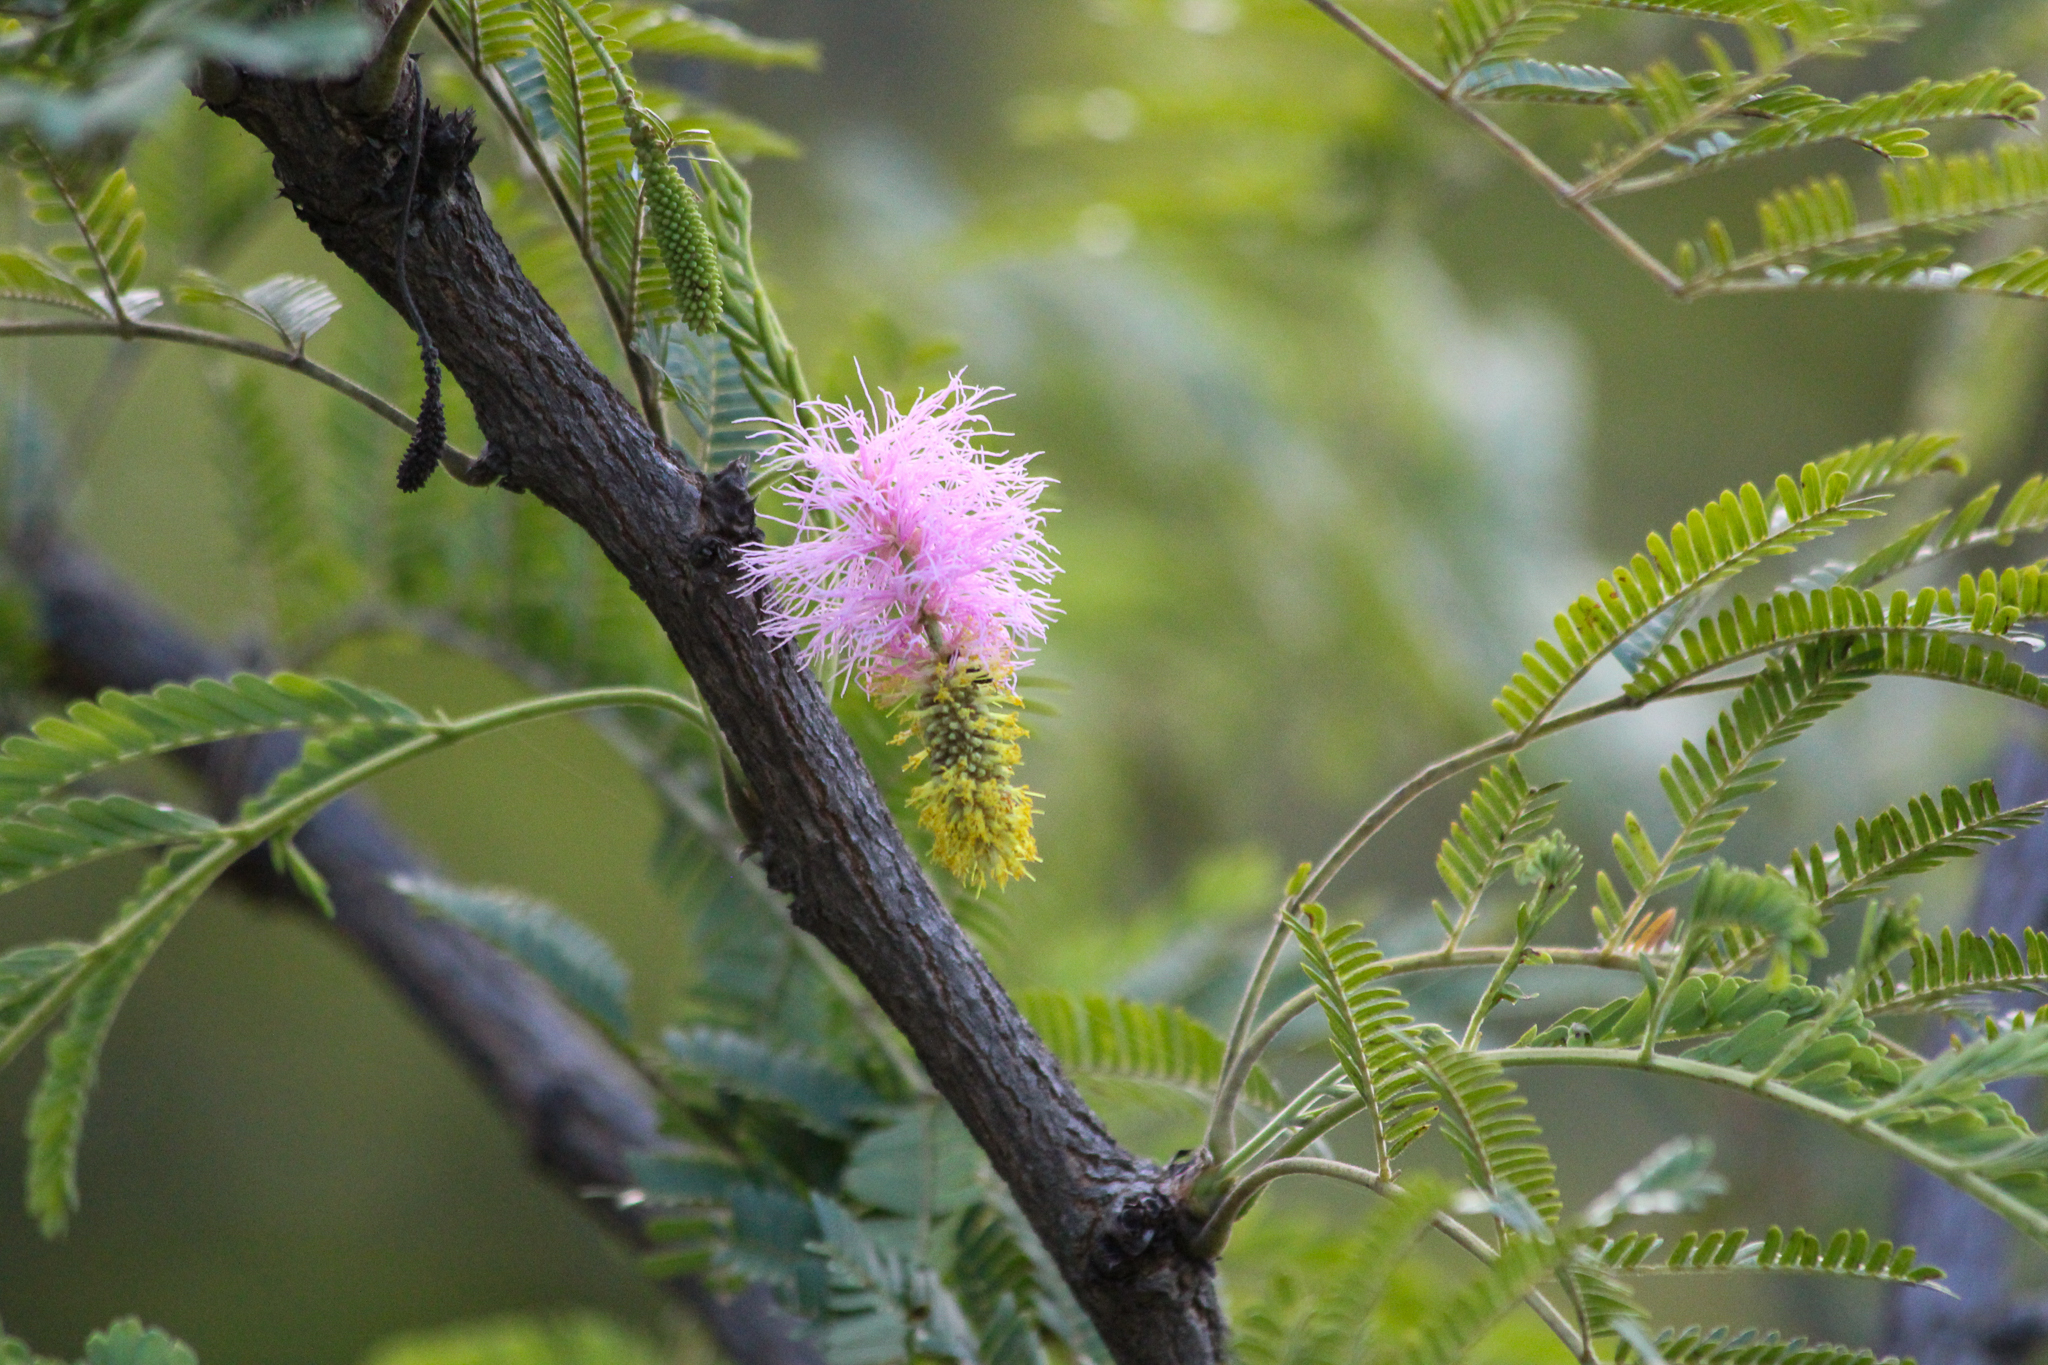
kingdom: Plantae
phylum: Tracheophyta
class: Magnoliopsida
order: Fabales
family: Fabaceae
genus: Dichrostachys
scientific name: Dichrostachys cinerea
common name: Sicklebush
